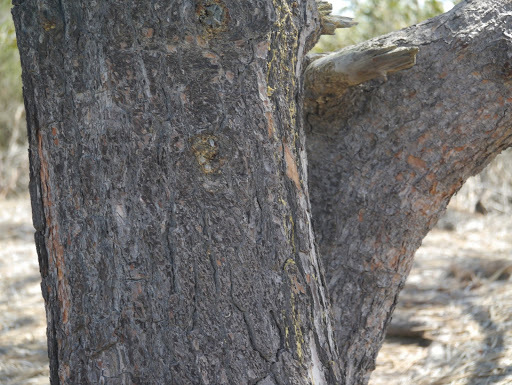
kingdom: Plantae
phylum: Tracheophyta
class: Pinopsida
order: Pinales
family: Pinaceae
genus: Pinus
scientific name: Pinus torreyana
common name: Torrey pine
